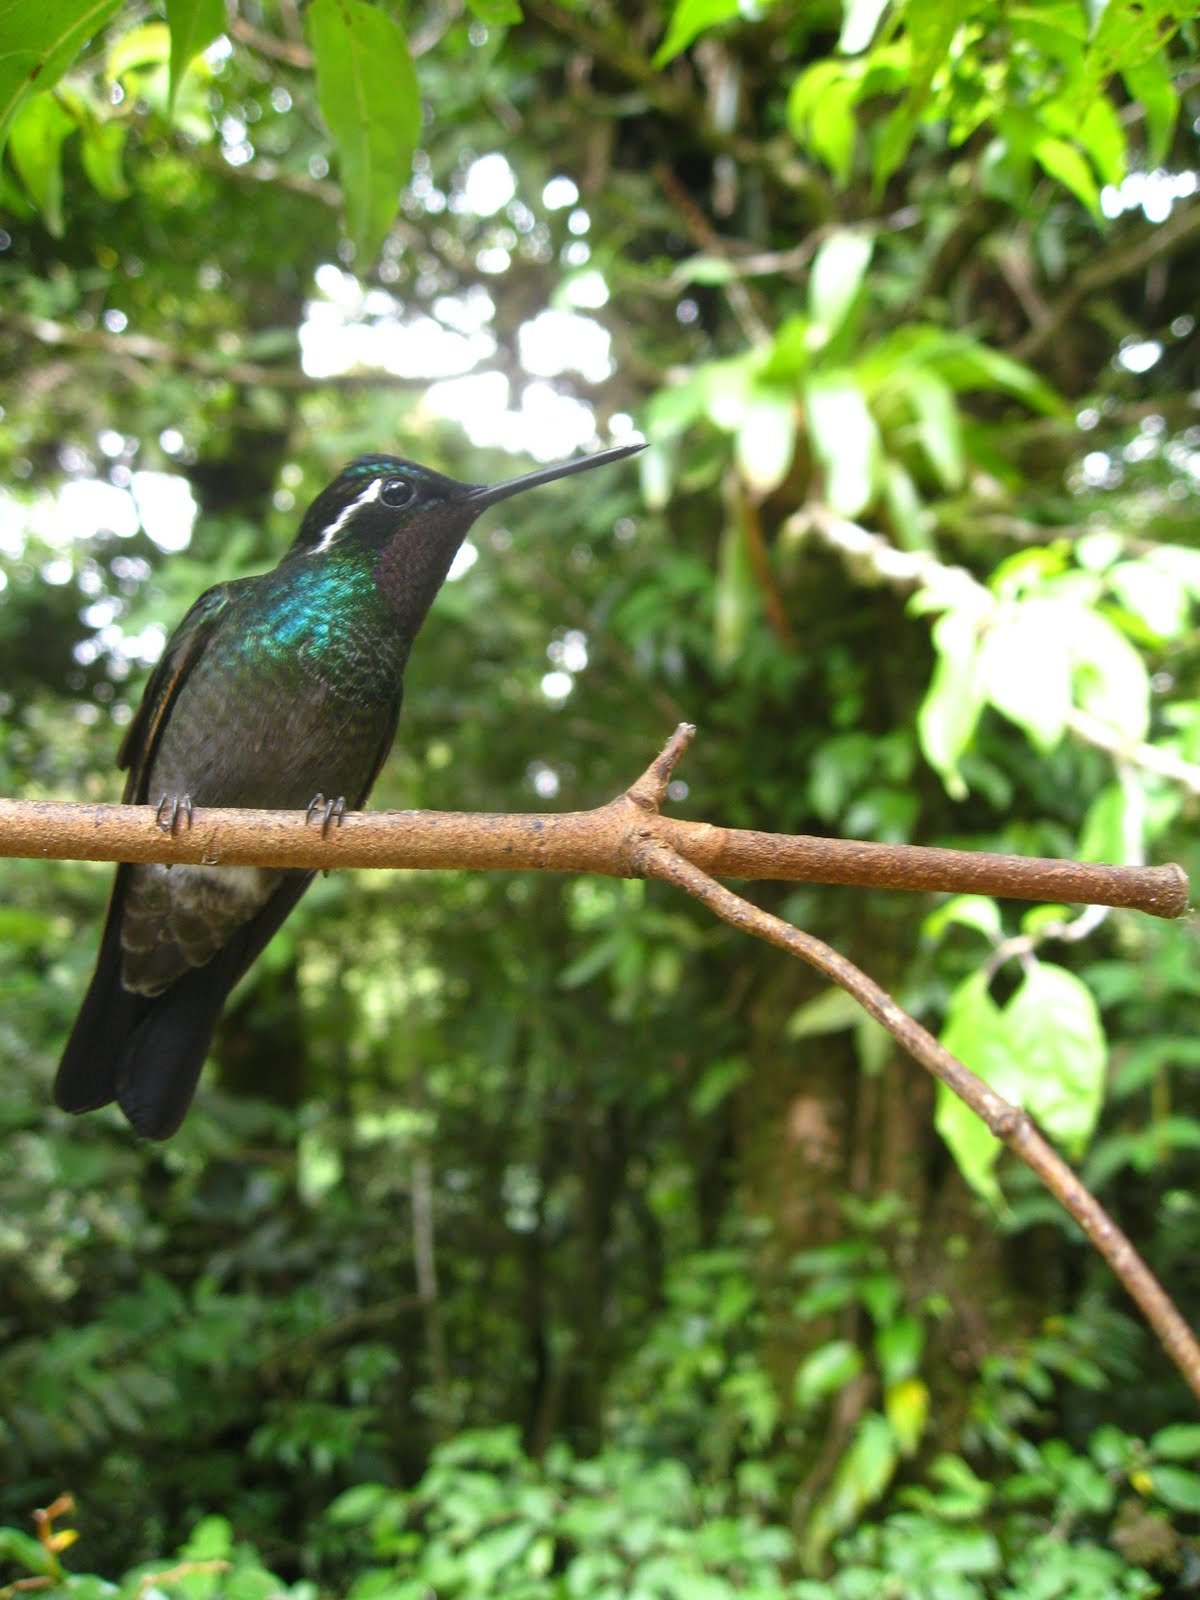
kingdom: Animalia
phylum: Chordata
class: Aves
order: Apodiformes
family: Trochilidae
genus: Lampornis
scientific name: Lampornis calolaemus
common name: Purple-throated mountain-gem
